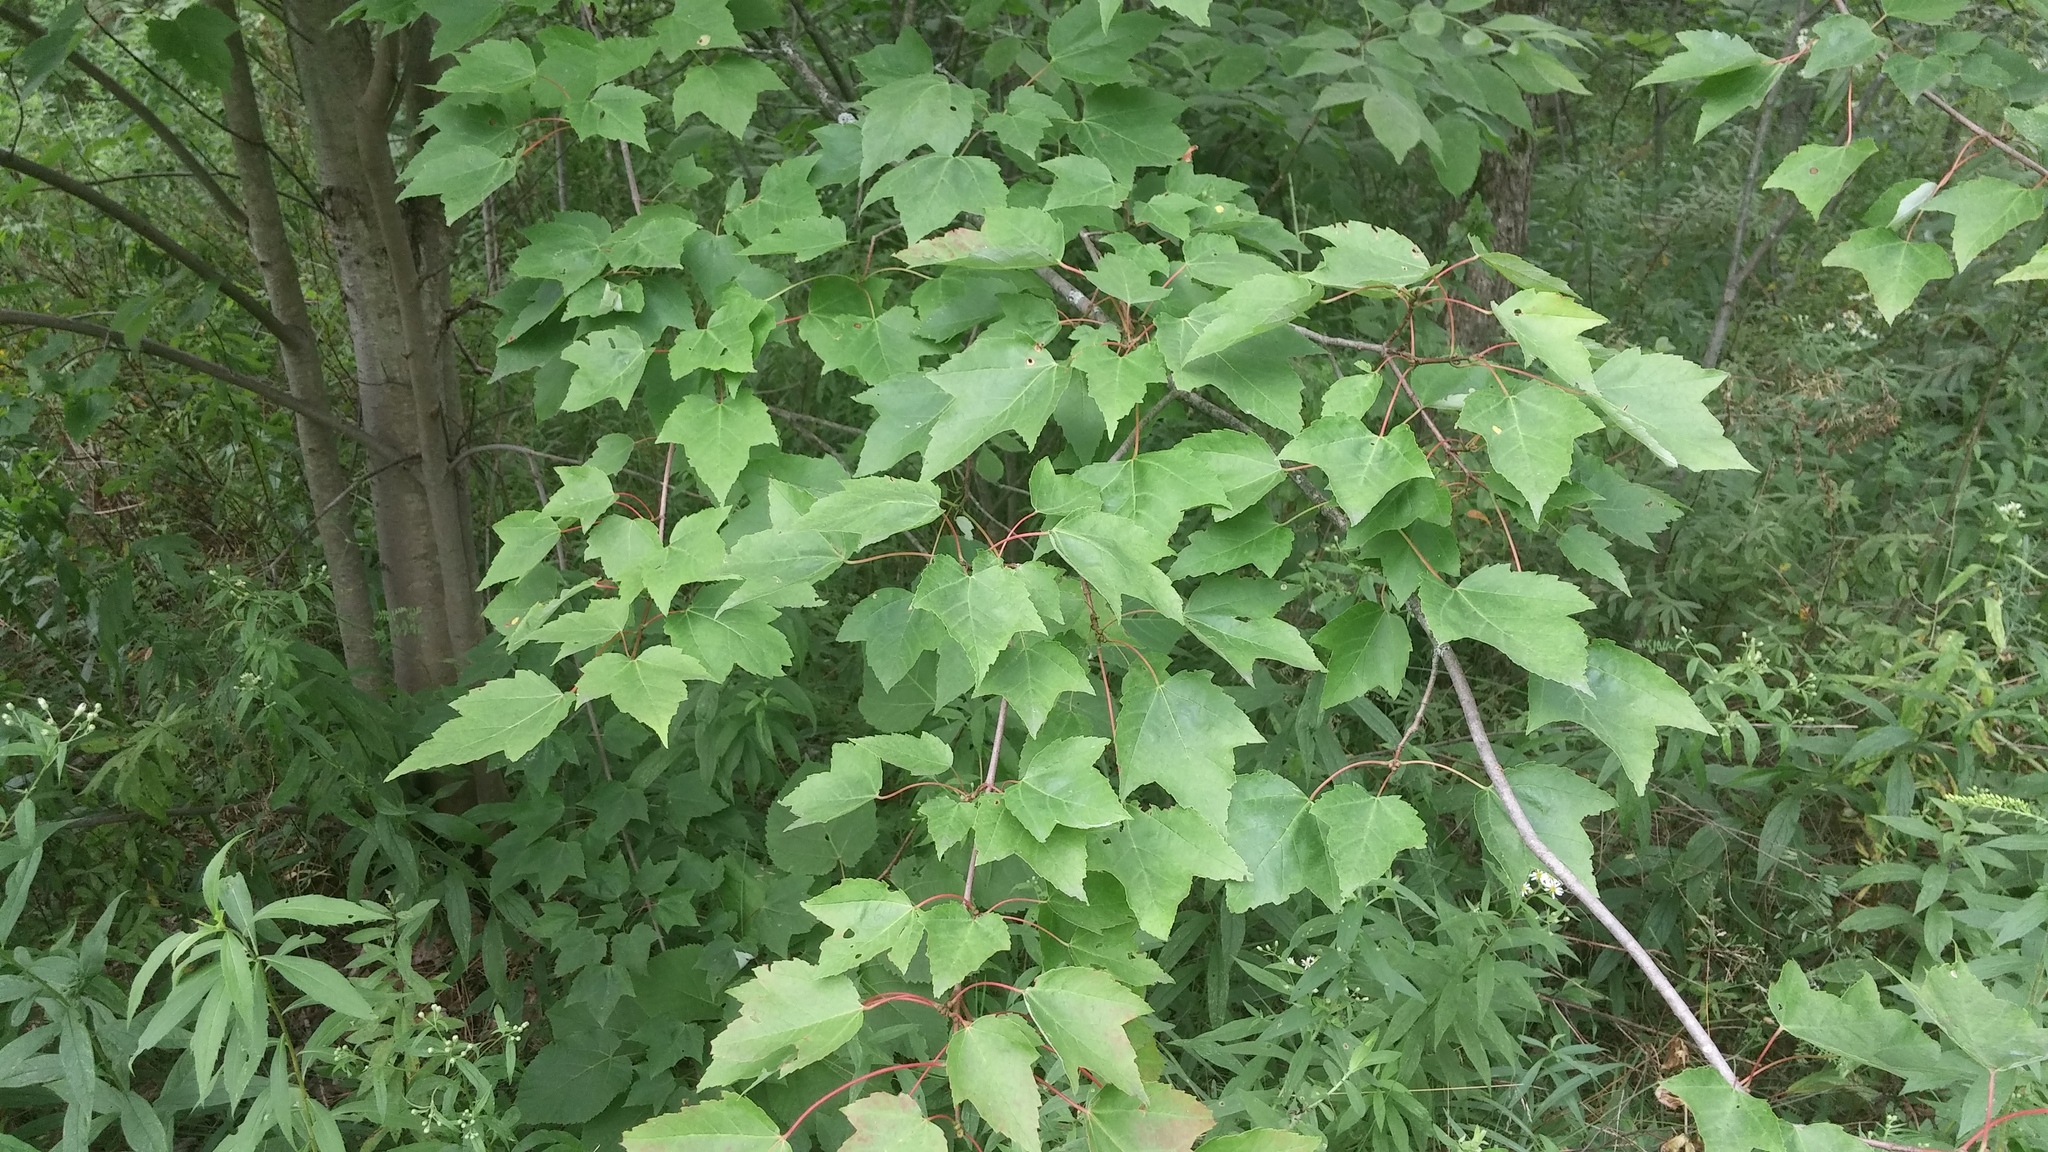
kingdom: Plantae
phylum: Tracheophyta
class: Magnoliopsida
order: Sapindales
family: Sapindaceae
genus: Acer
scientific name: Acer rubrum
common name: Red maple
